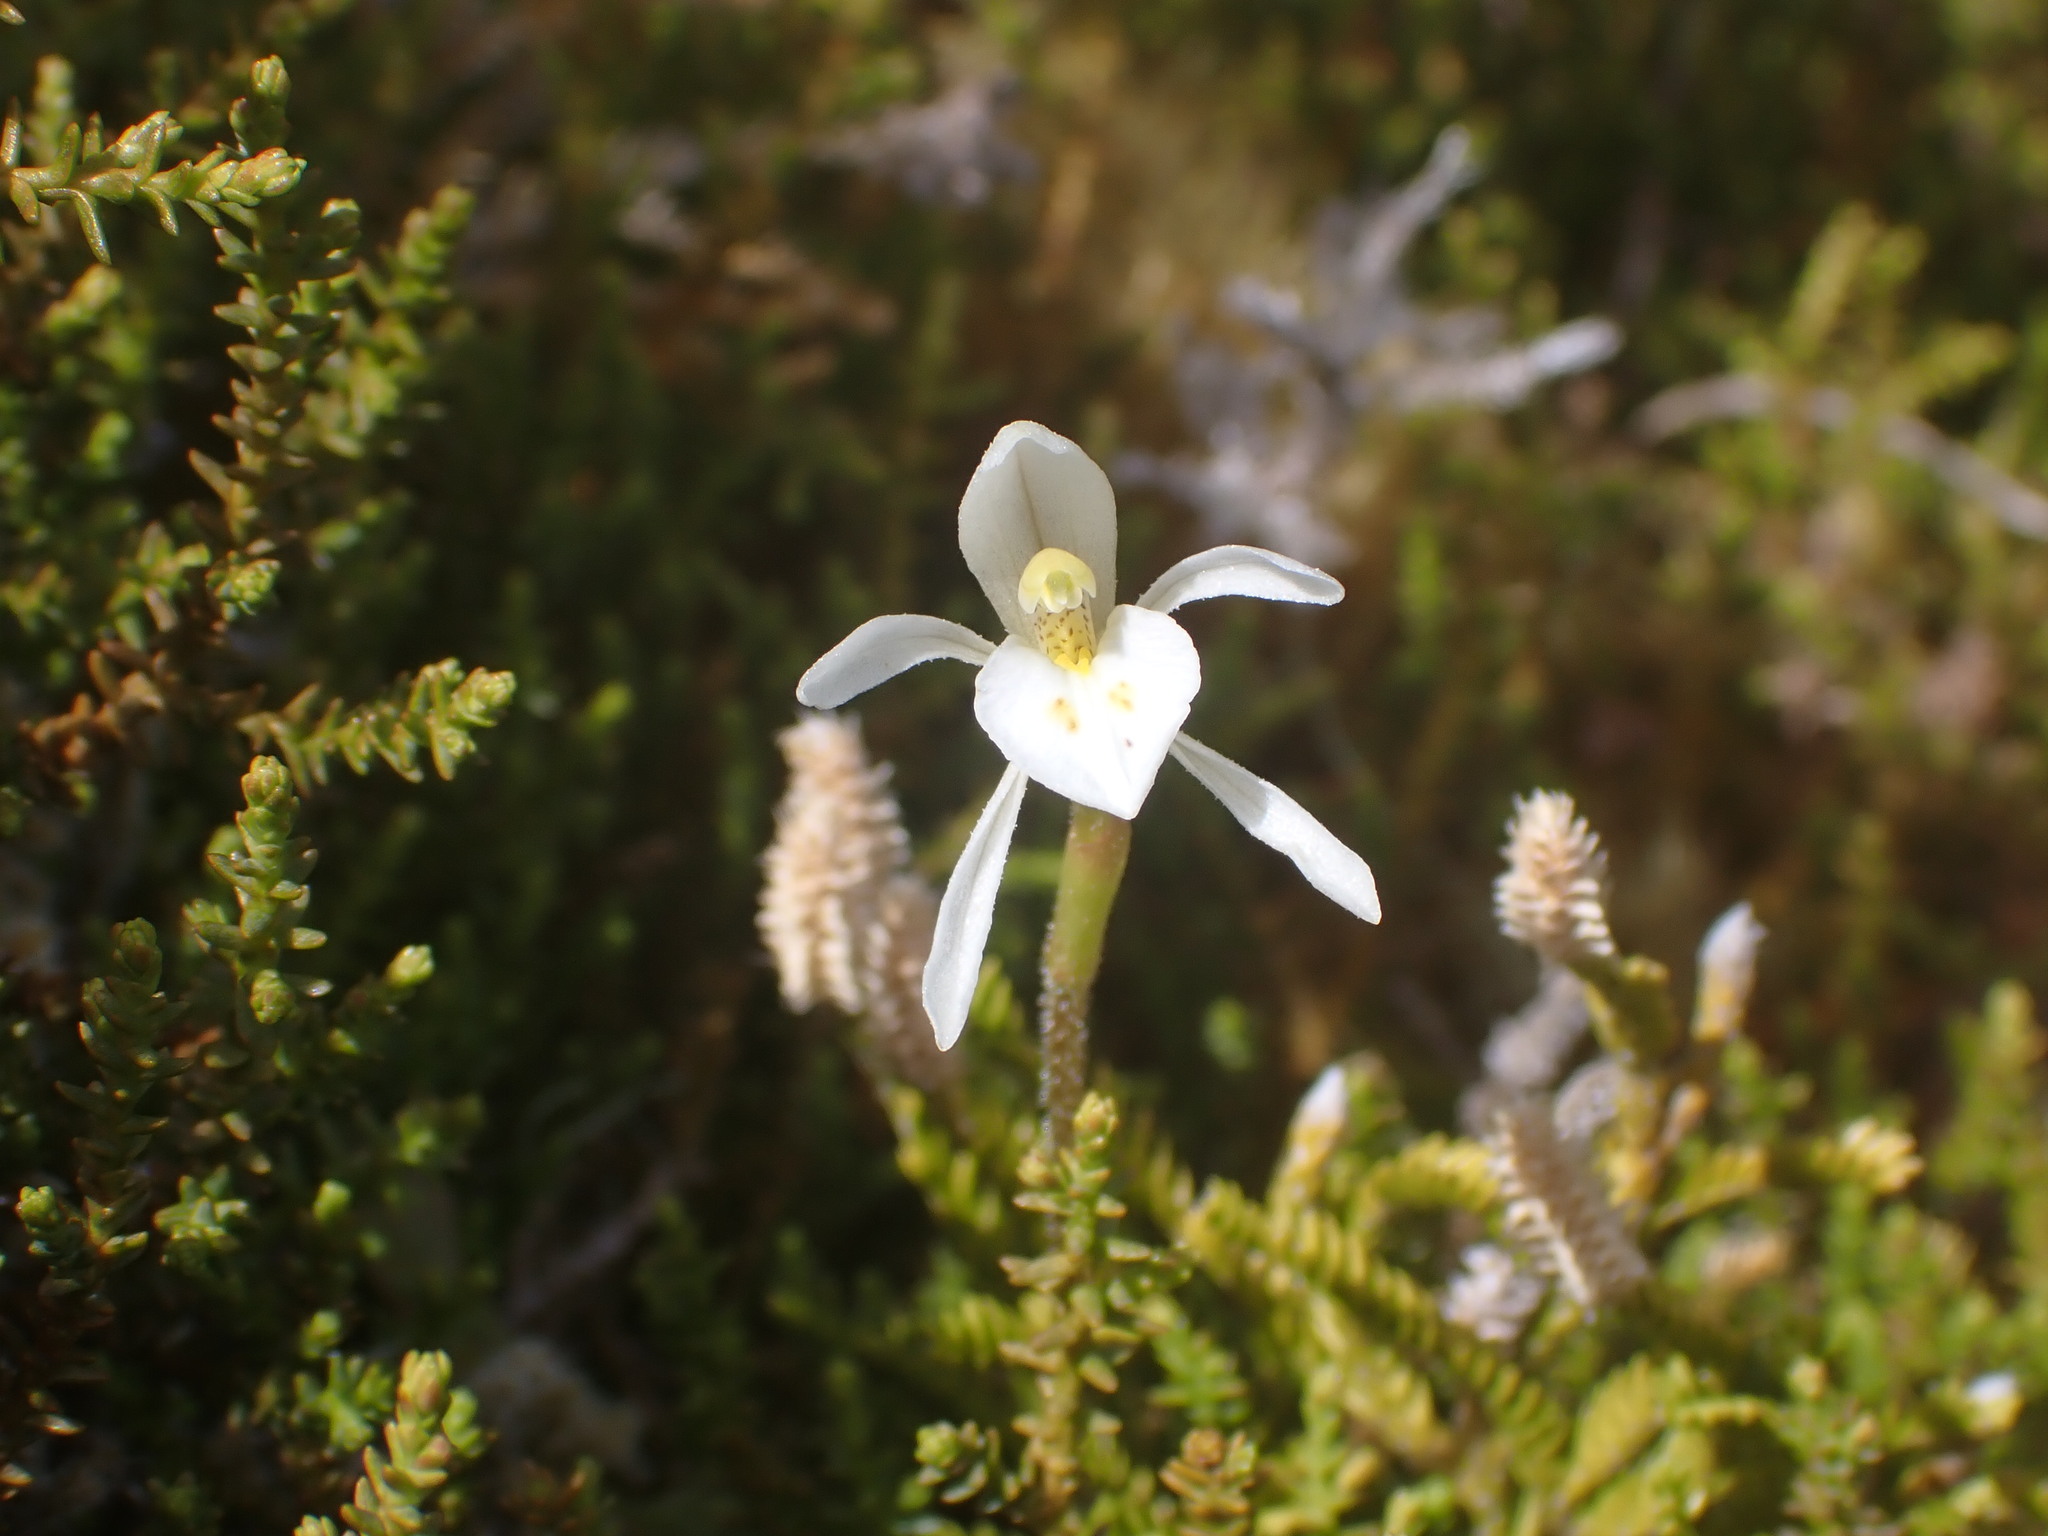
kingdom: Plantae
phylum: Tracheophyta
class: Liliopsida
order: Asparagales
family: Orchidaceae
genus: Aporostylis
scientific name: Aporostylis bifolia
